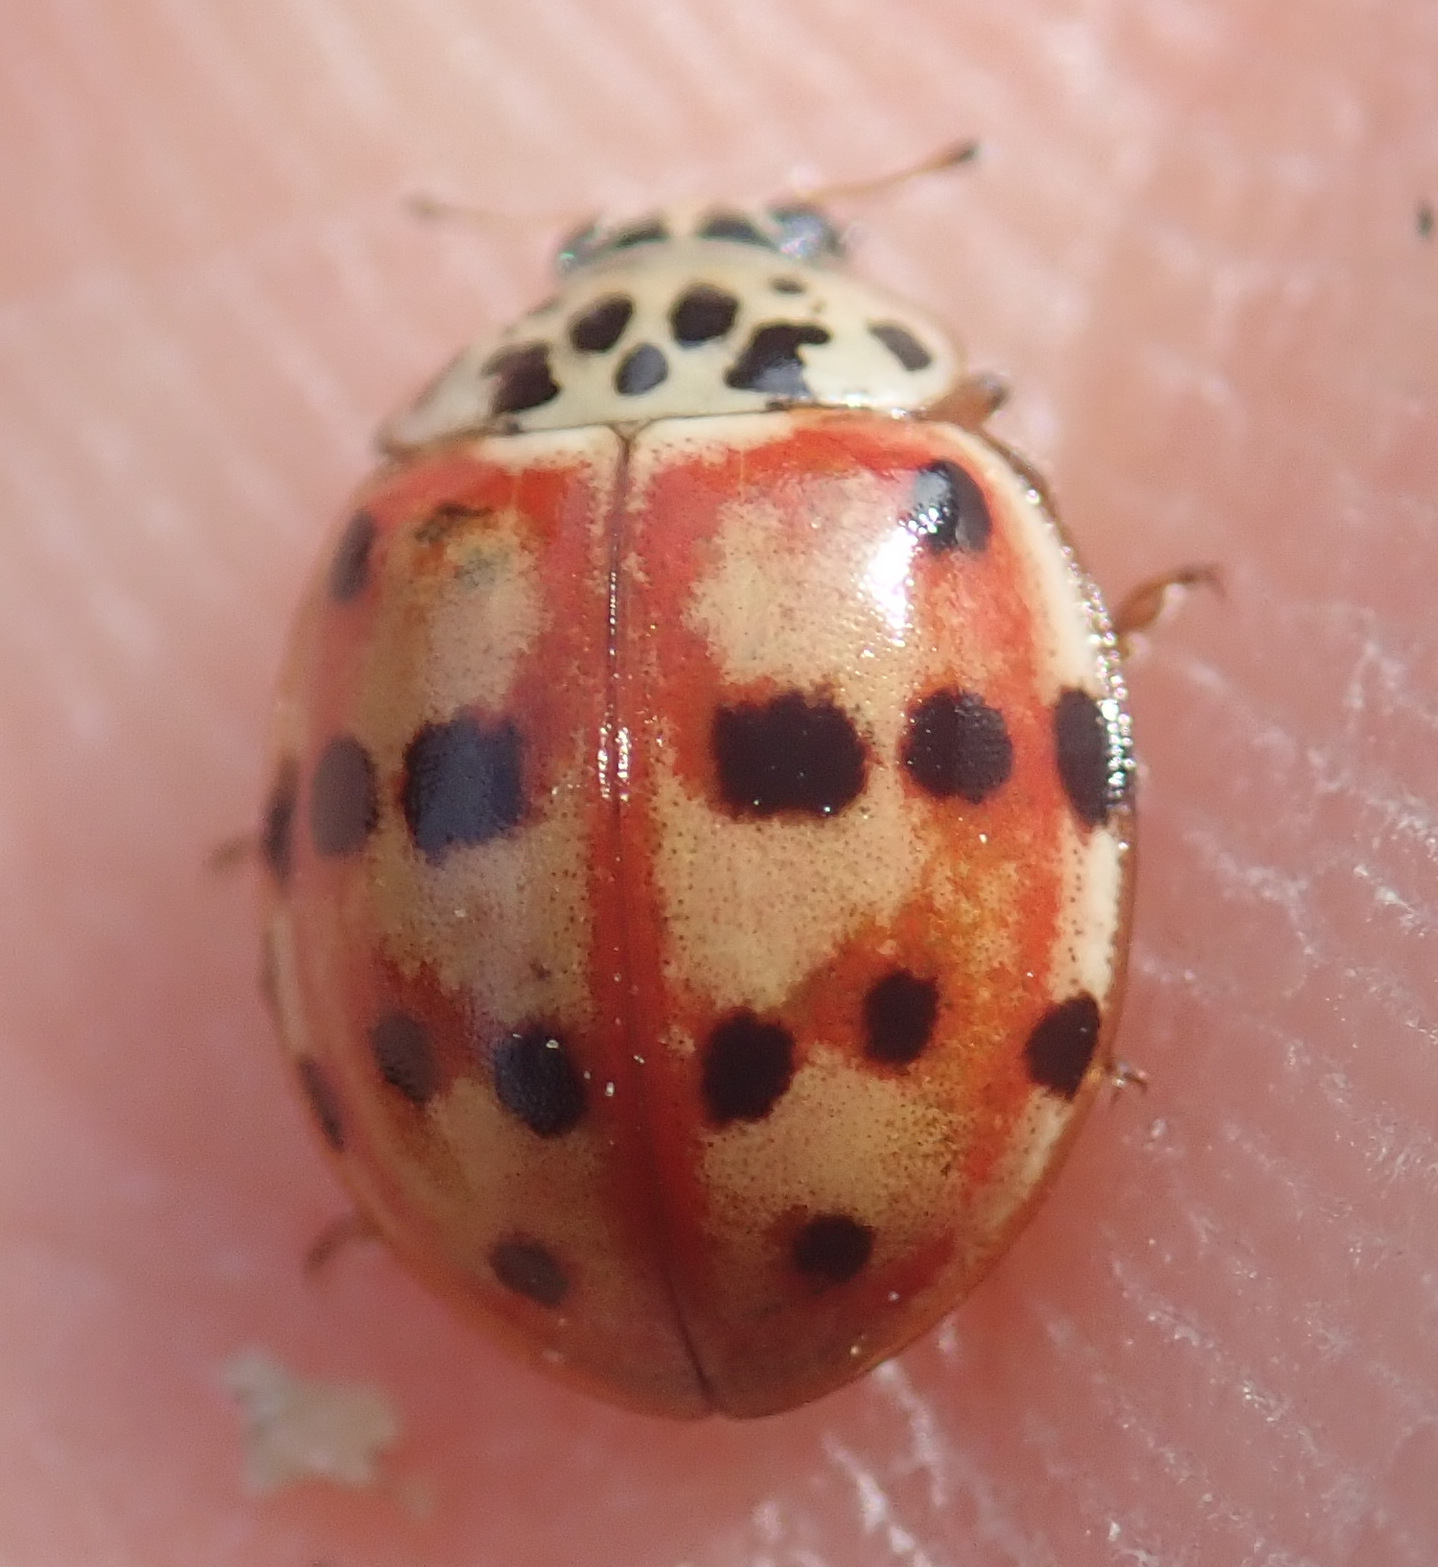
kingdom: Animalia
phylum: Arthropoda
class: Insecta
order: Coleoptera
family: Coccinellidae
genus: Harmonia
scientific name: Harmonia quadripunctata
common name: Cream-streaked ladybird
